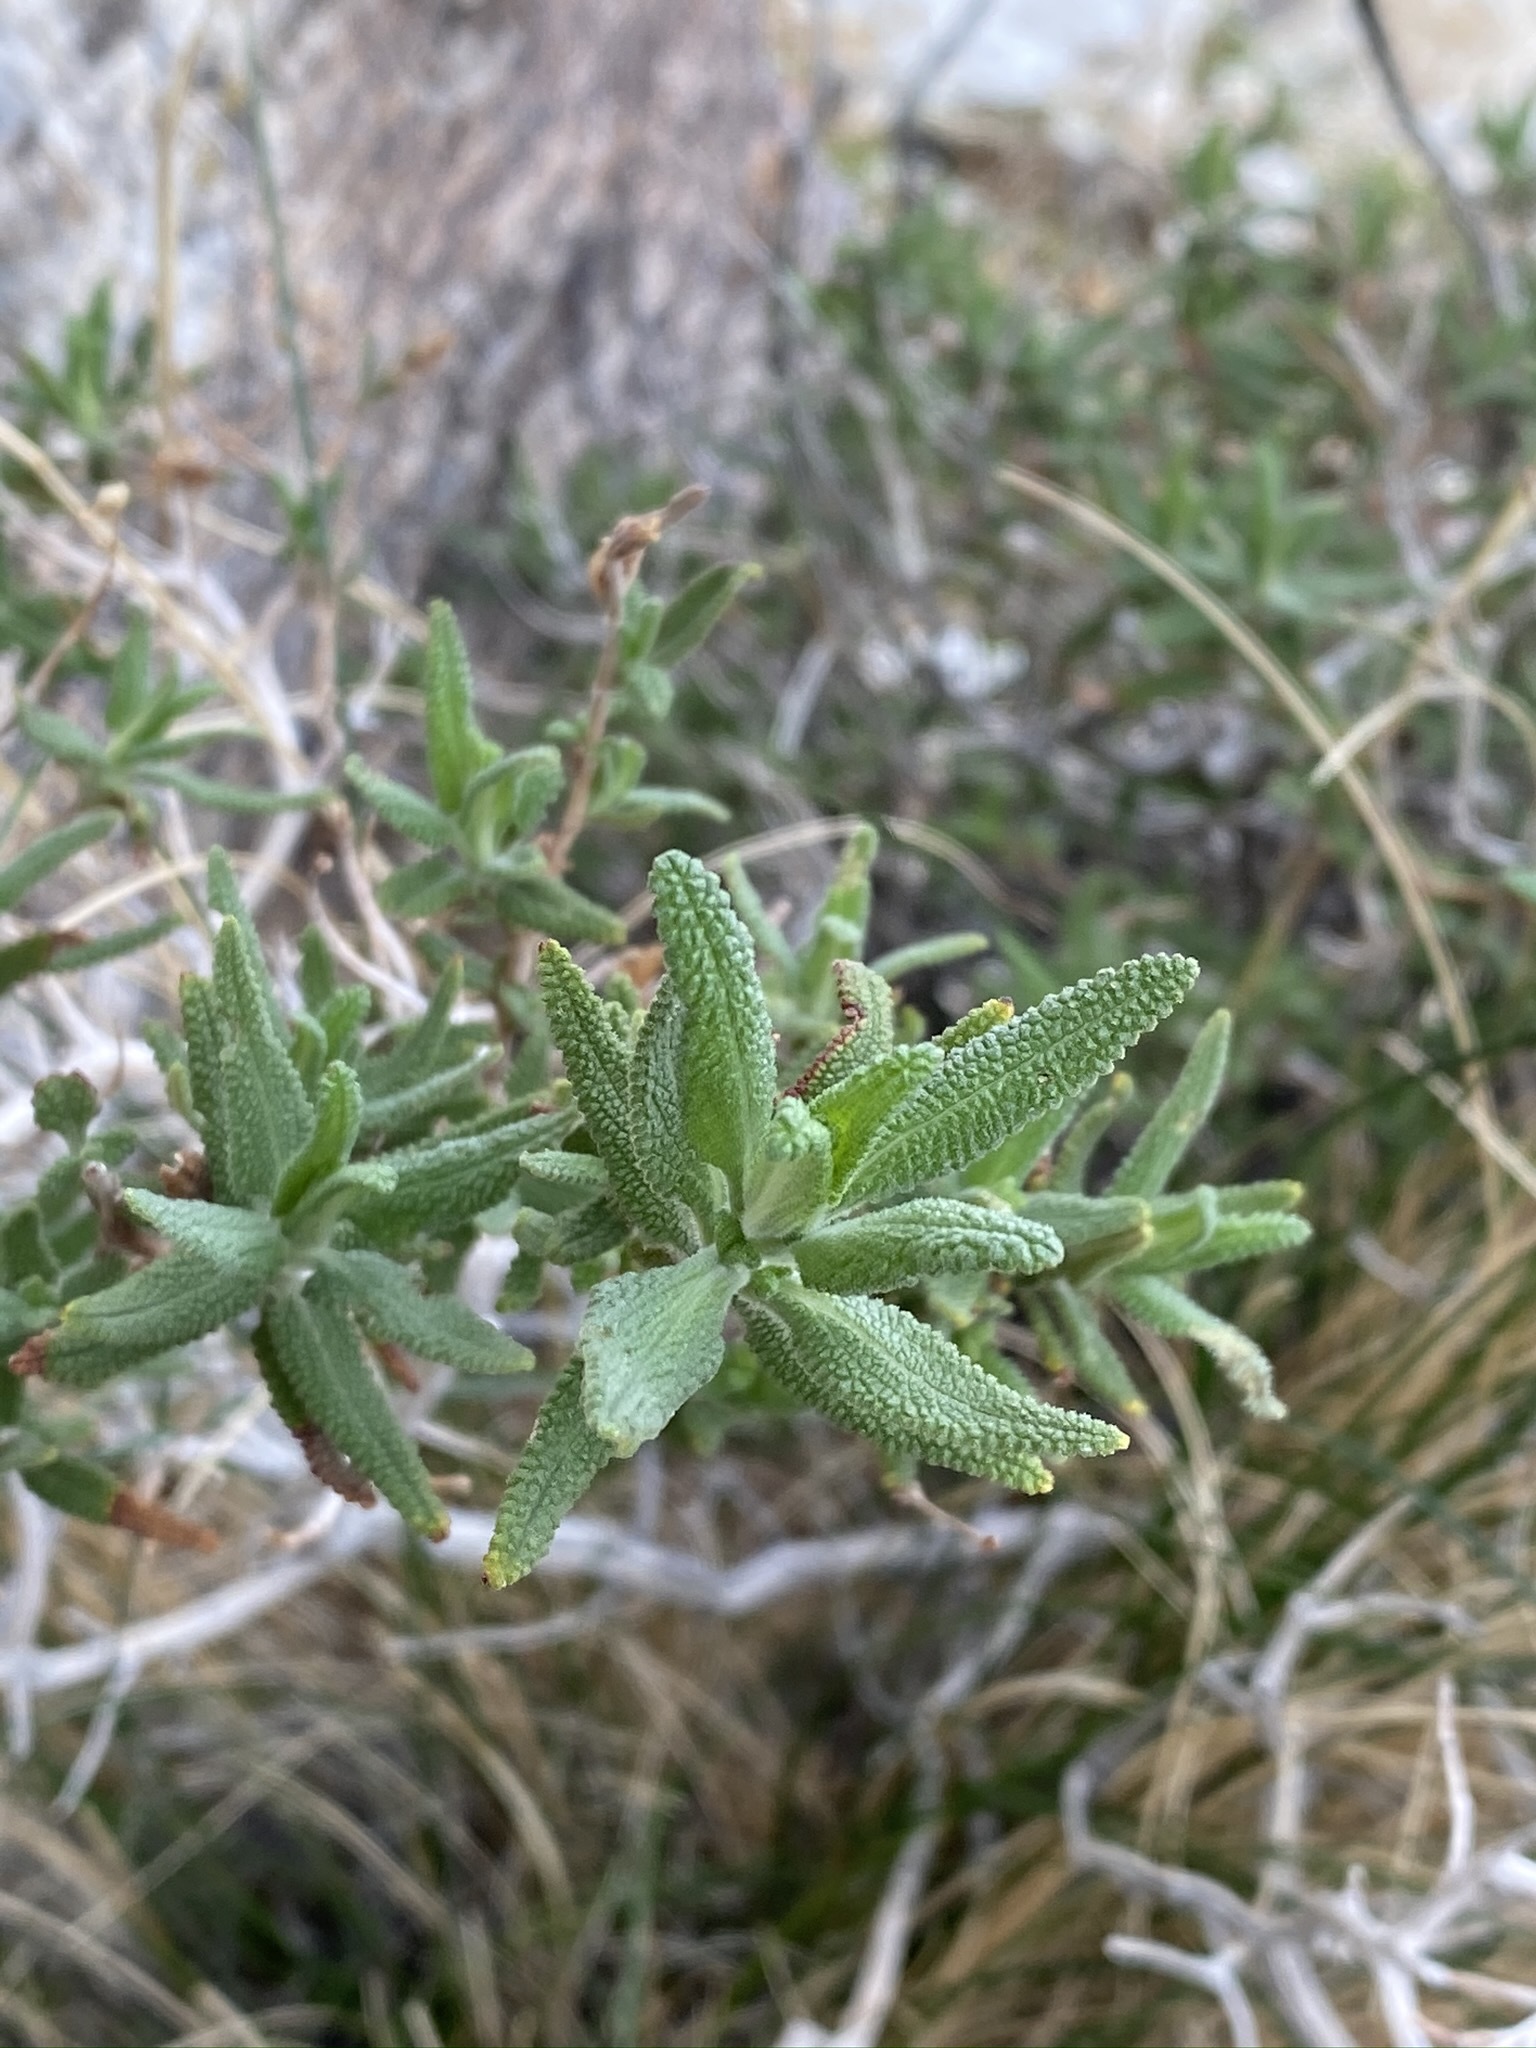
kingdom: Plantae
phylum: Tracheophyta
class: Magnoliopsida
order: Lamiales
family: Lamiaceae
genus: Salvia
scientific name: Salvia eremostachya
